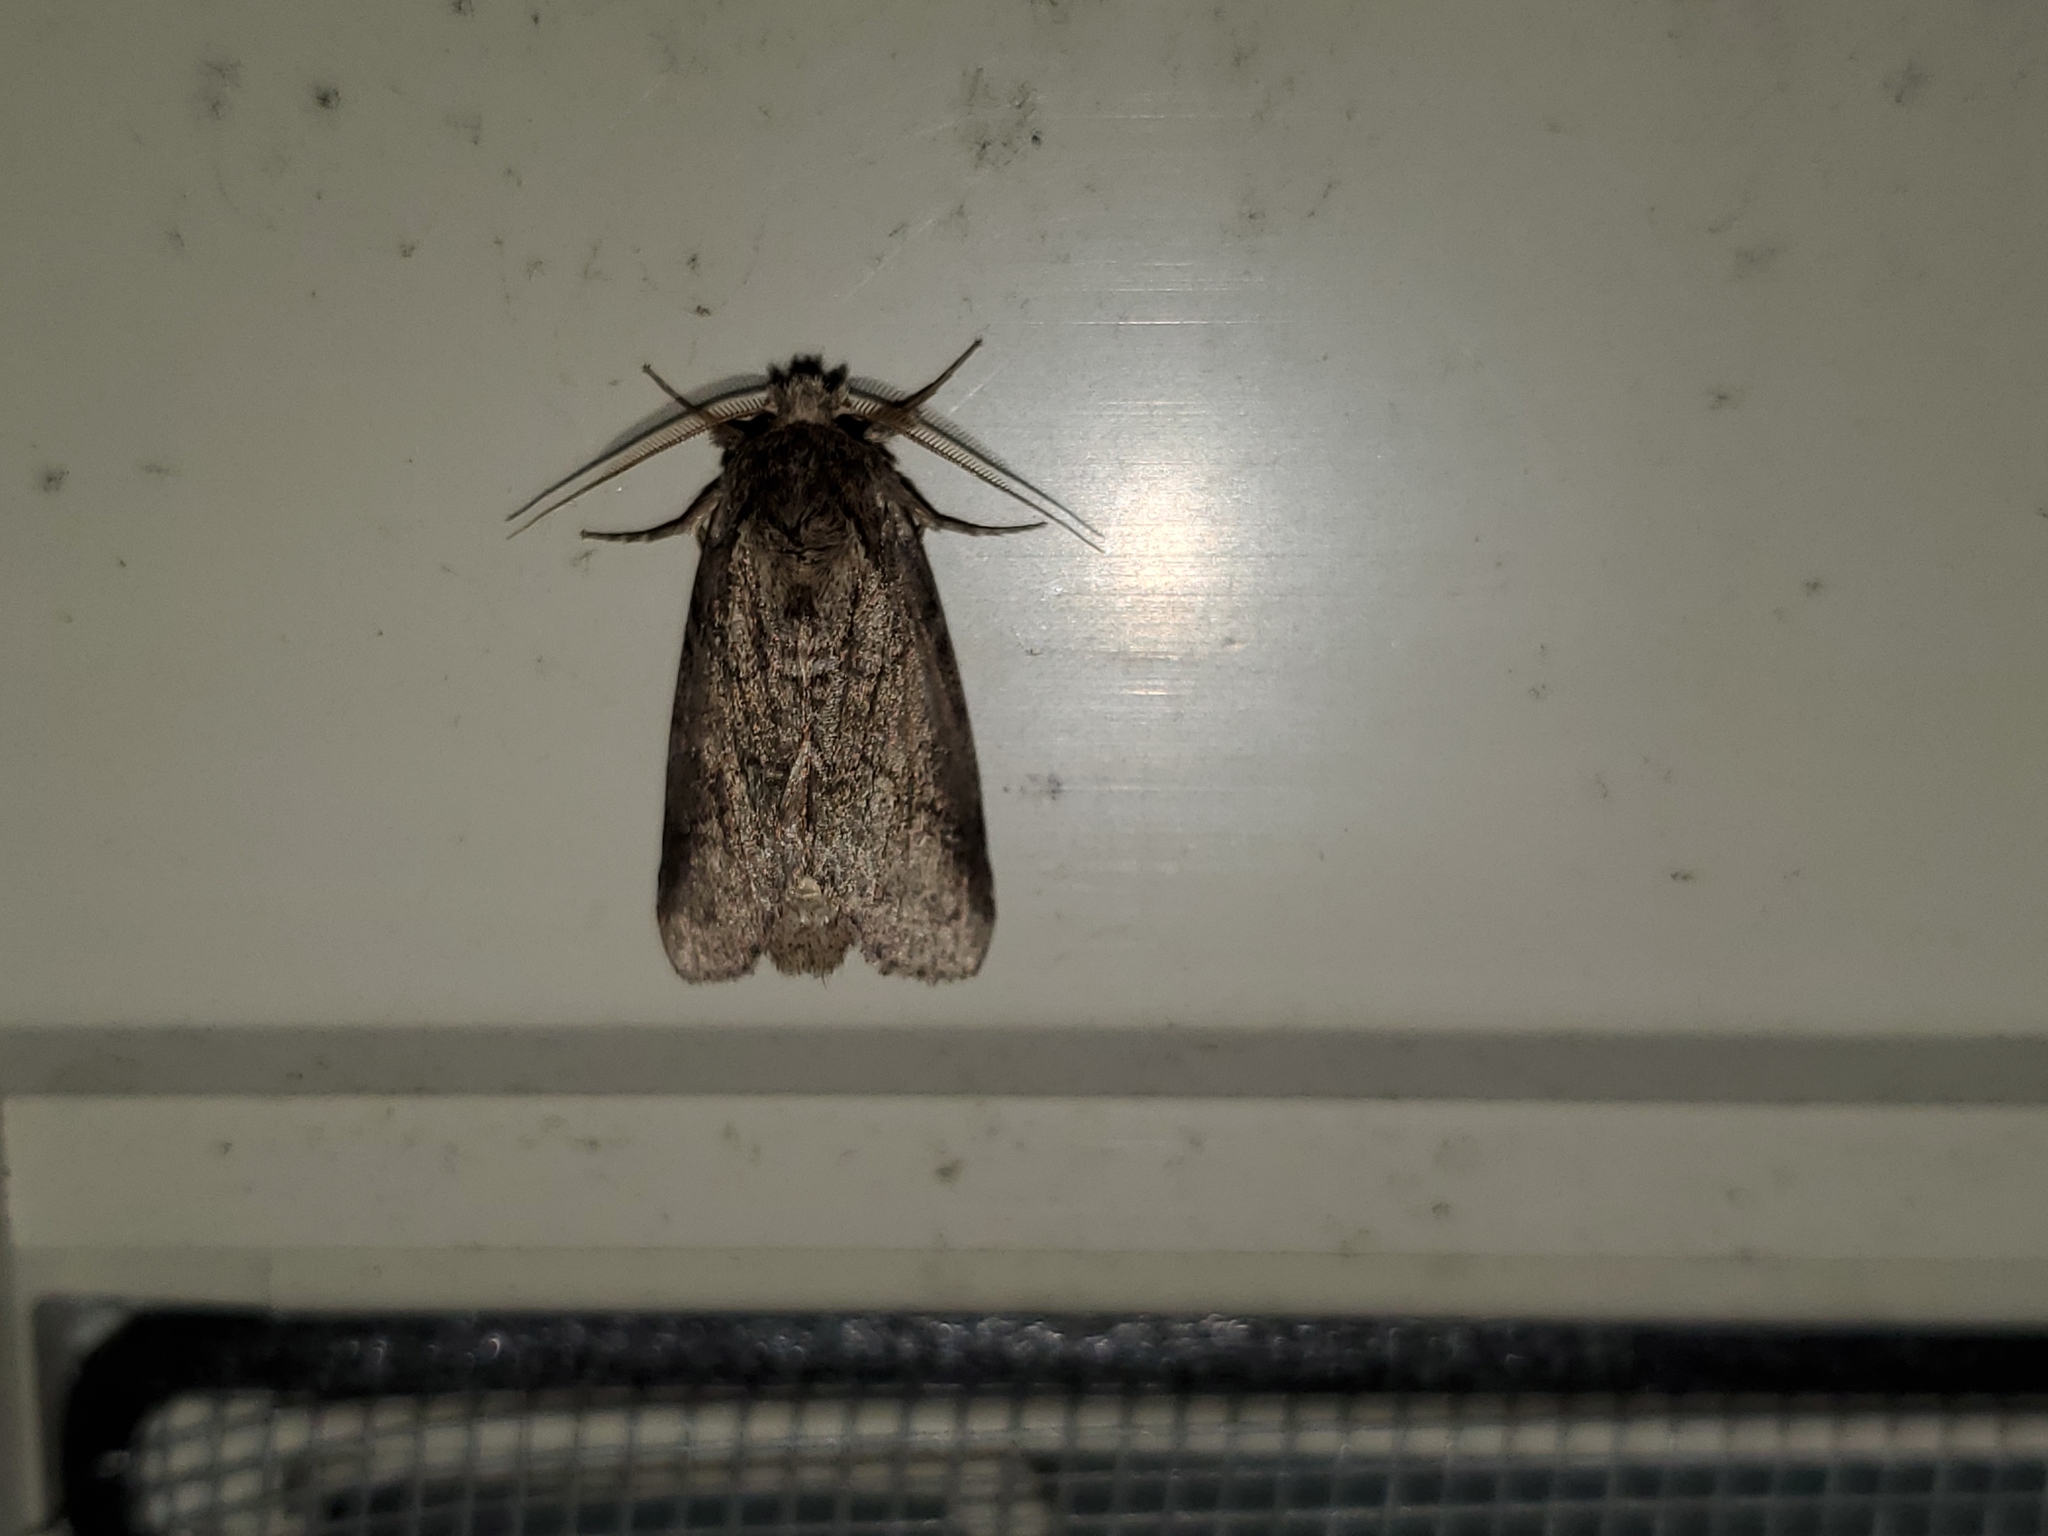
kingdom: Animalia
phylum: Arthropoda
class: Insecta
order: Lepidoptera
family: Notodontidae
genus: Lochmaeus
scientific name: Lochmaeus bilineata
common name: Double-lined prominent
